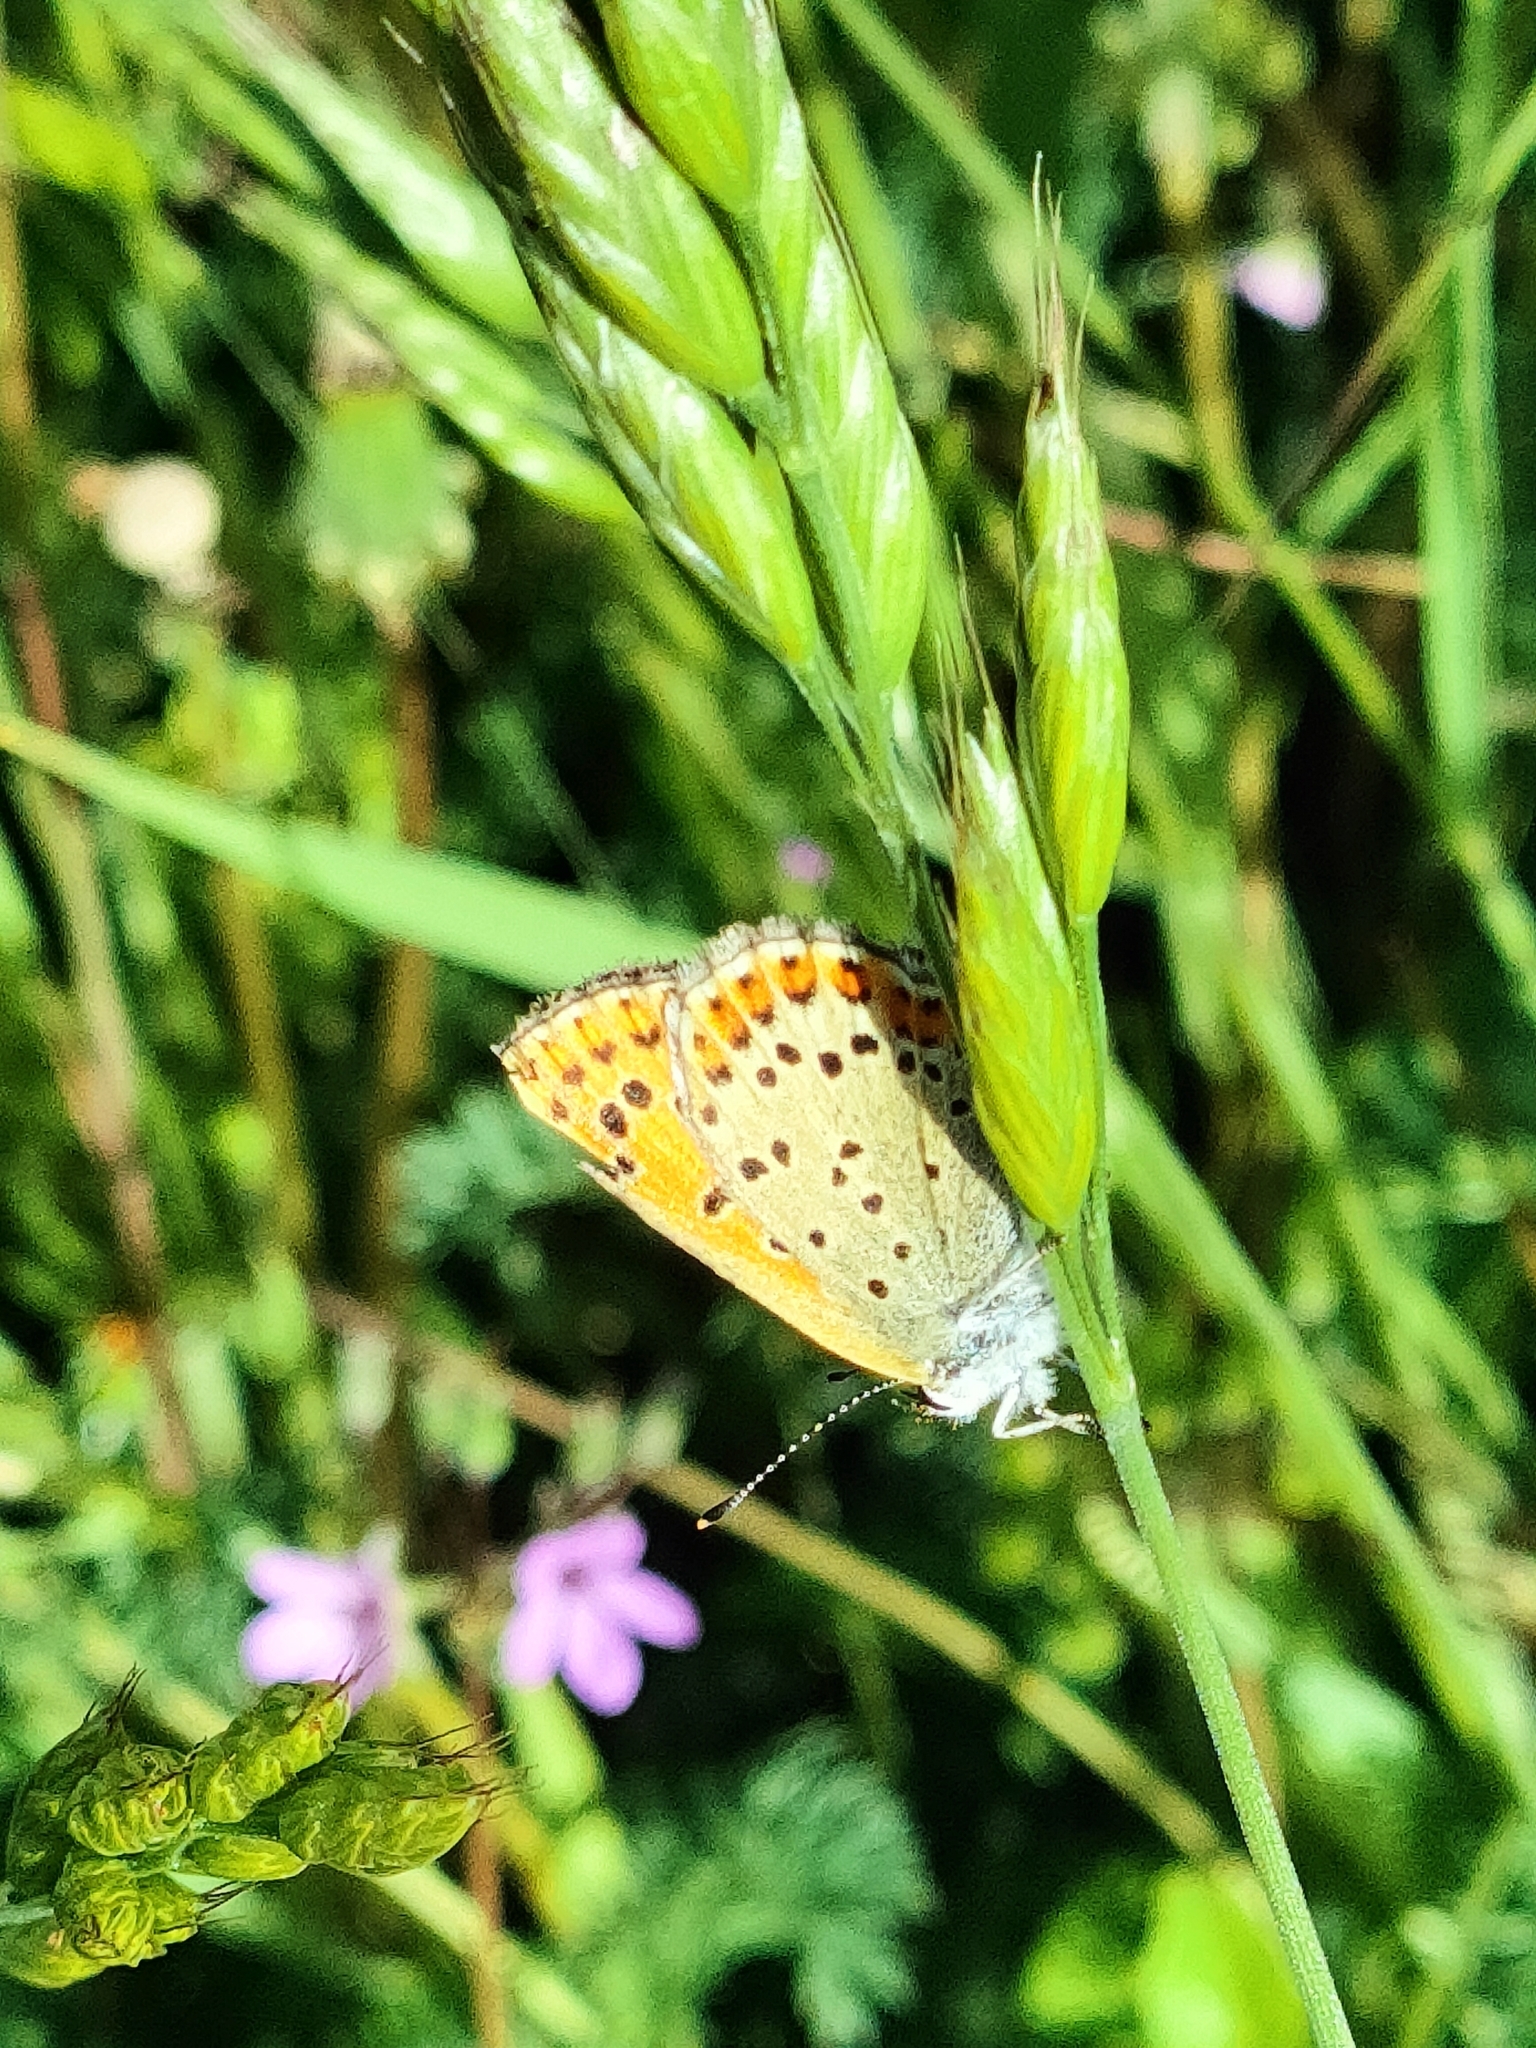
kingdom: Animalia
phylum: Arthropoda
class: Insecta
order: Lepidoptera
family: Lycaenidae
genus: Loweia
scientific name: Loweia tityrus
